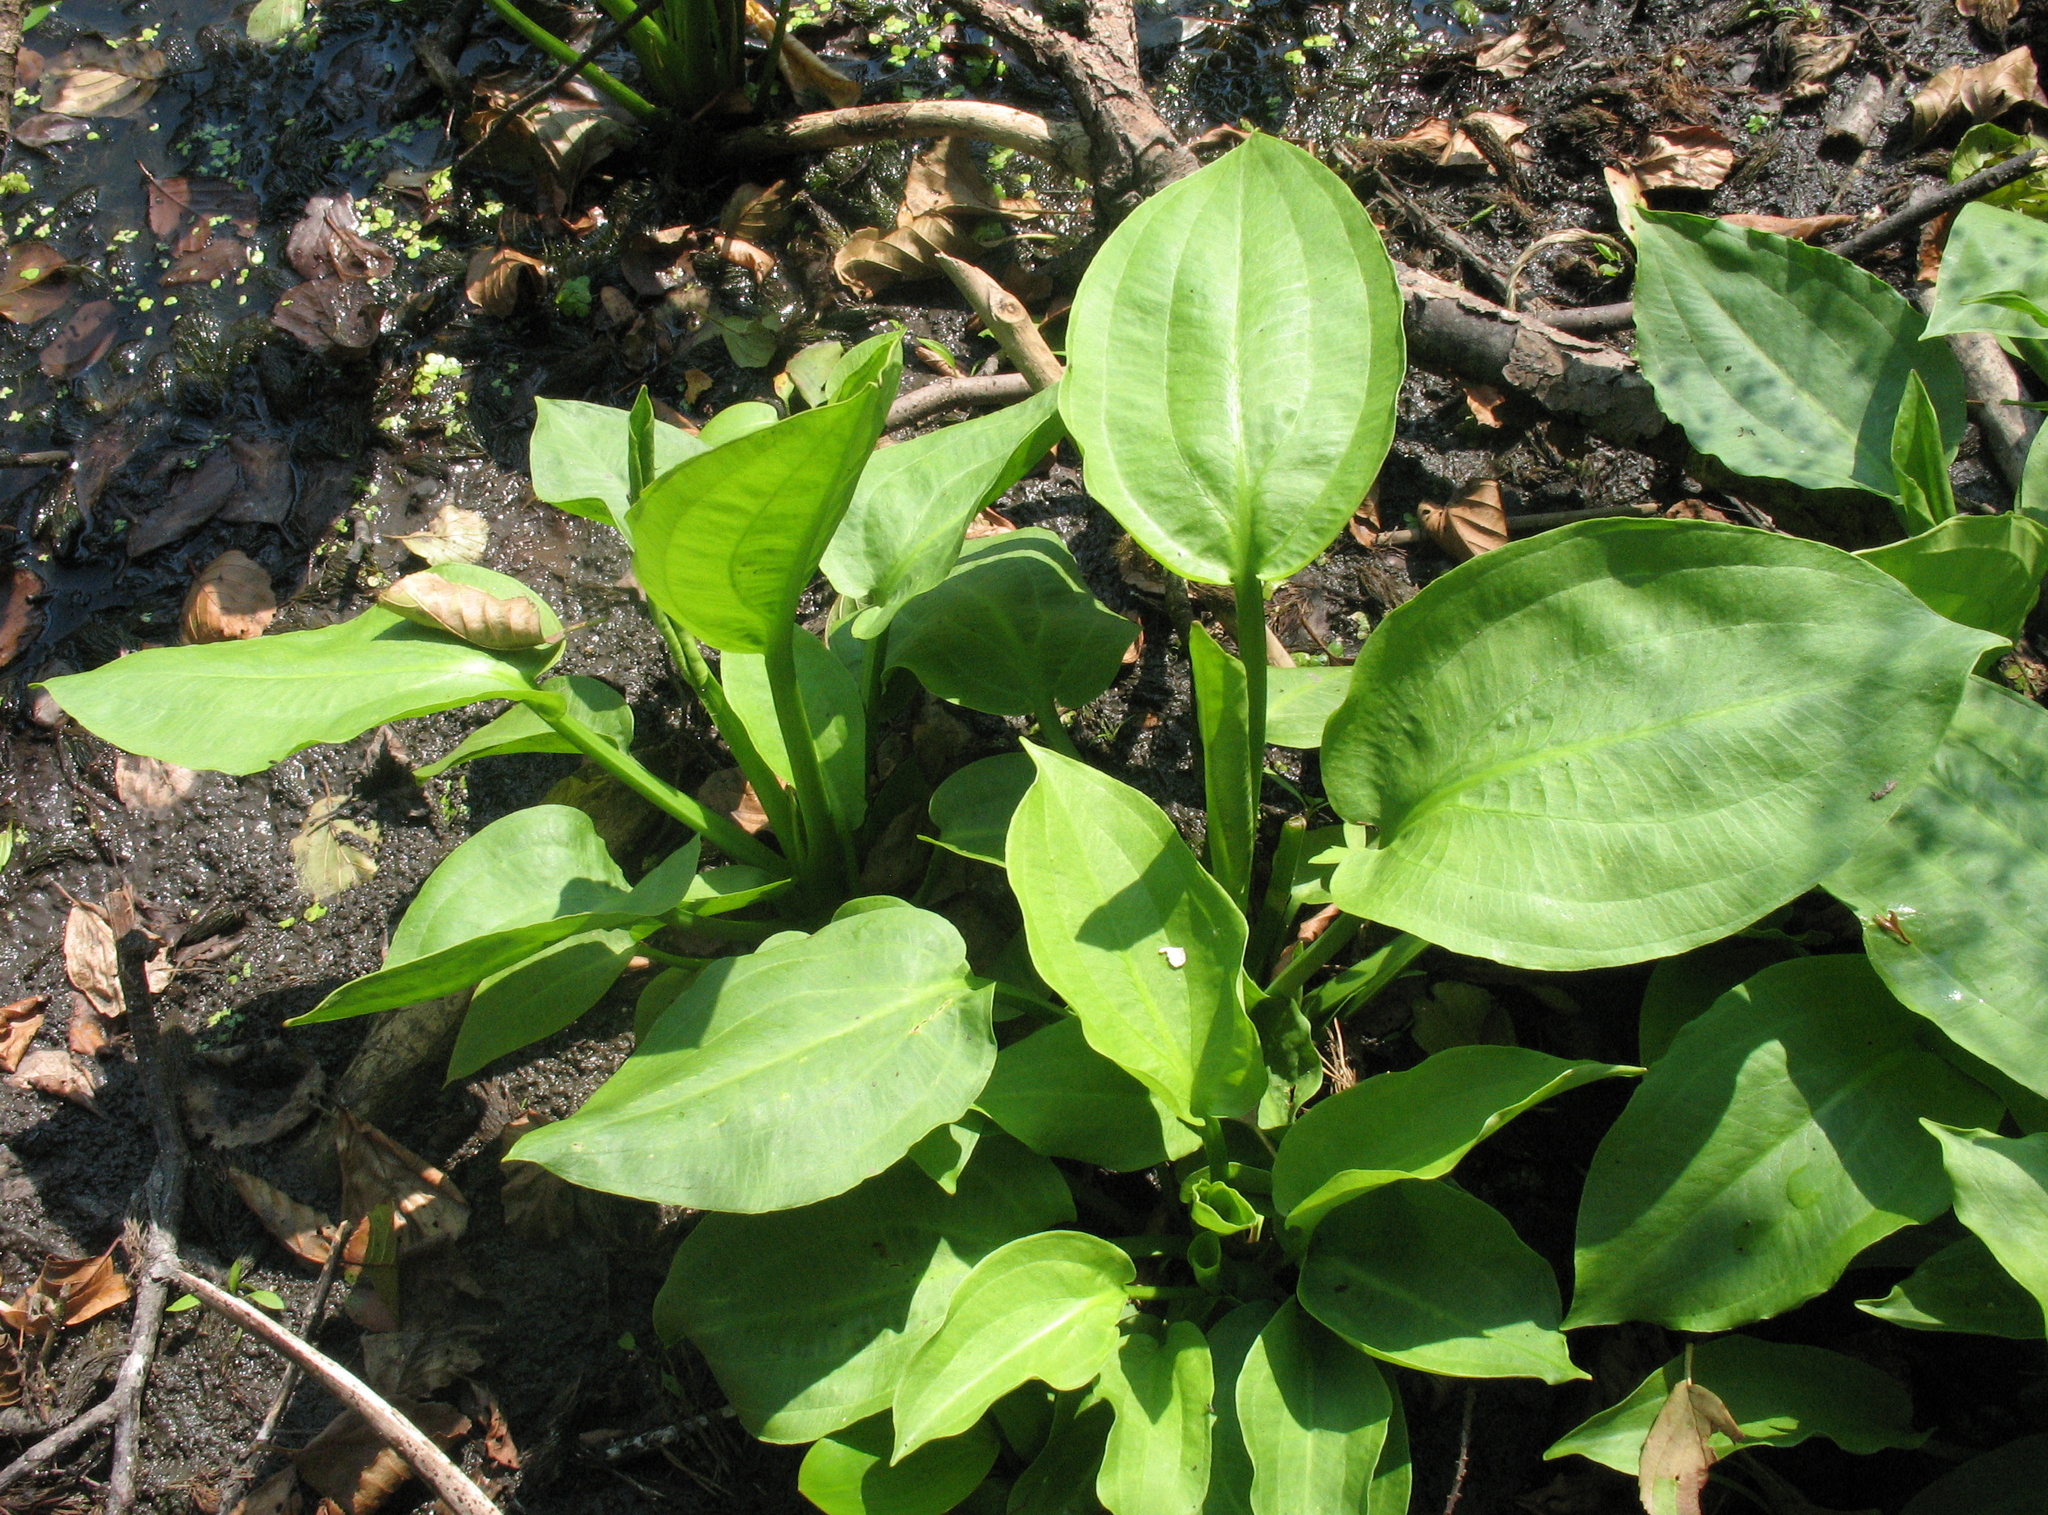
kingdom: Plantae
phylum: Tracheophyta
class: Liliopsida
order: Alismatales
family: Alismataceae
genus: Alisma
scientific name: Alisma plantago-aquatica
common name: Water-plantain
